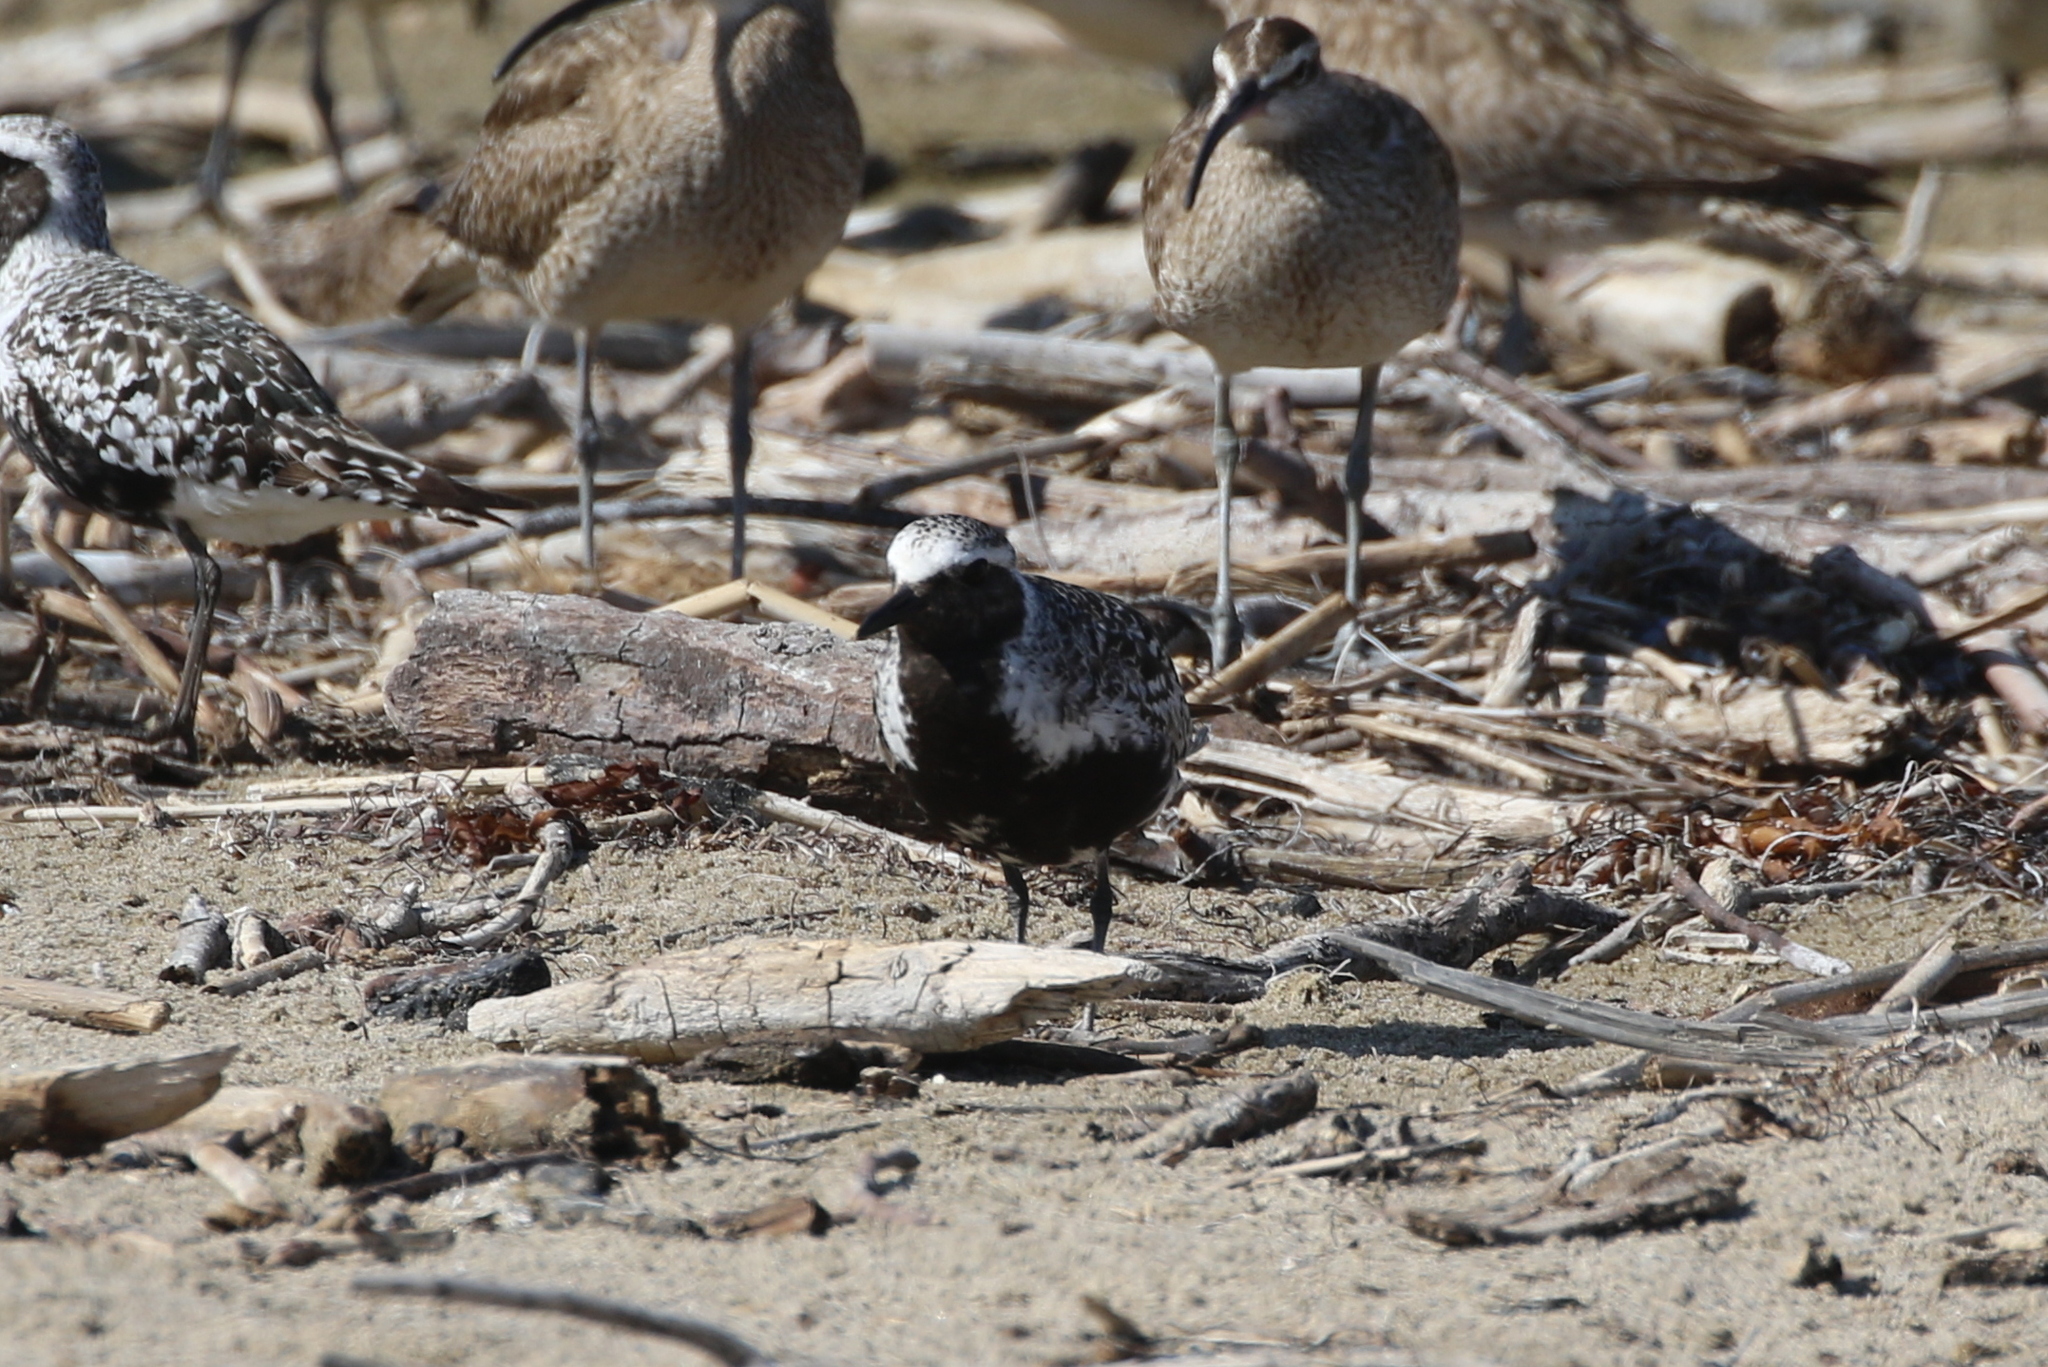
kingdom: Animalia
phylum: Chordata
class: Aves
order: Charadriiformes
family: Charadriidae
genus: Pluvialis
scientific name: Pluvialis squatarola
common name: Grey plover
